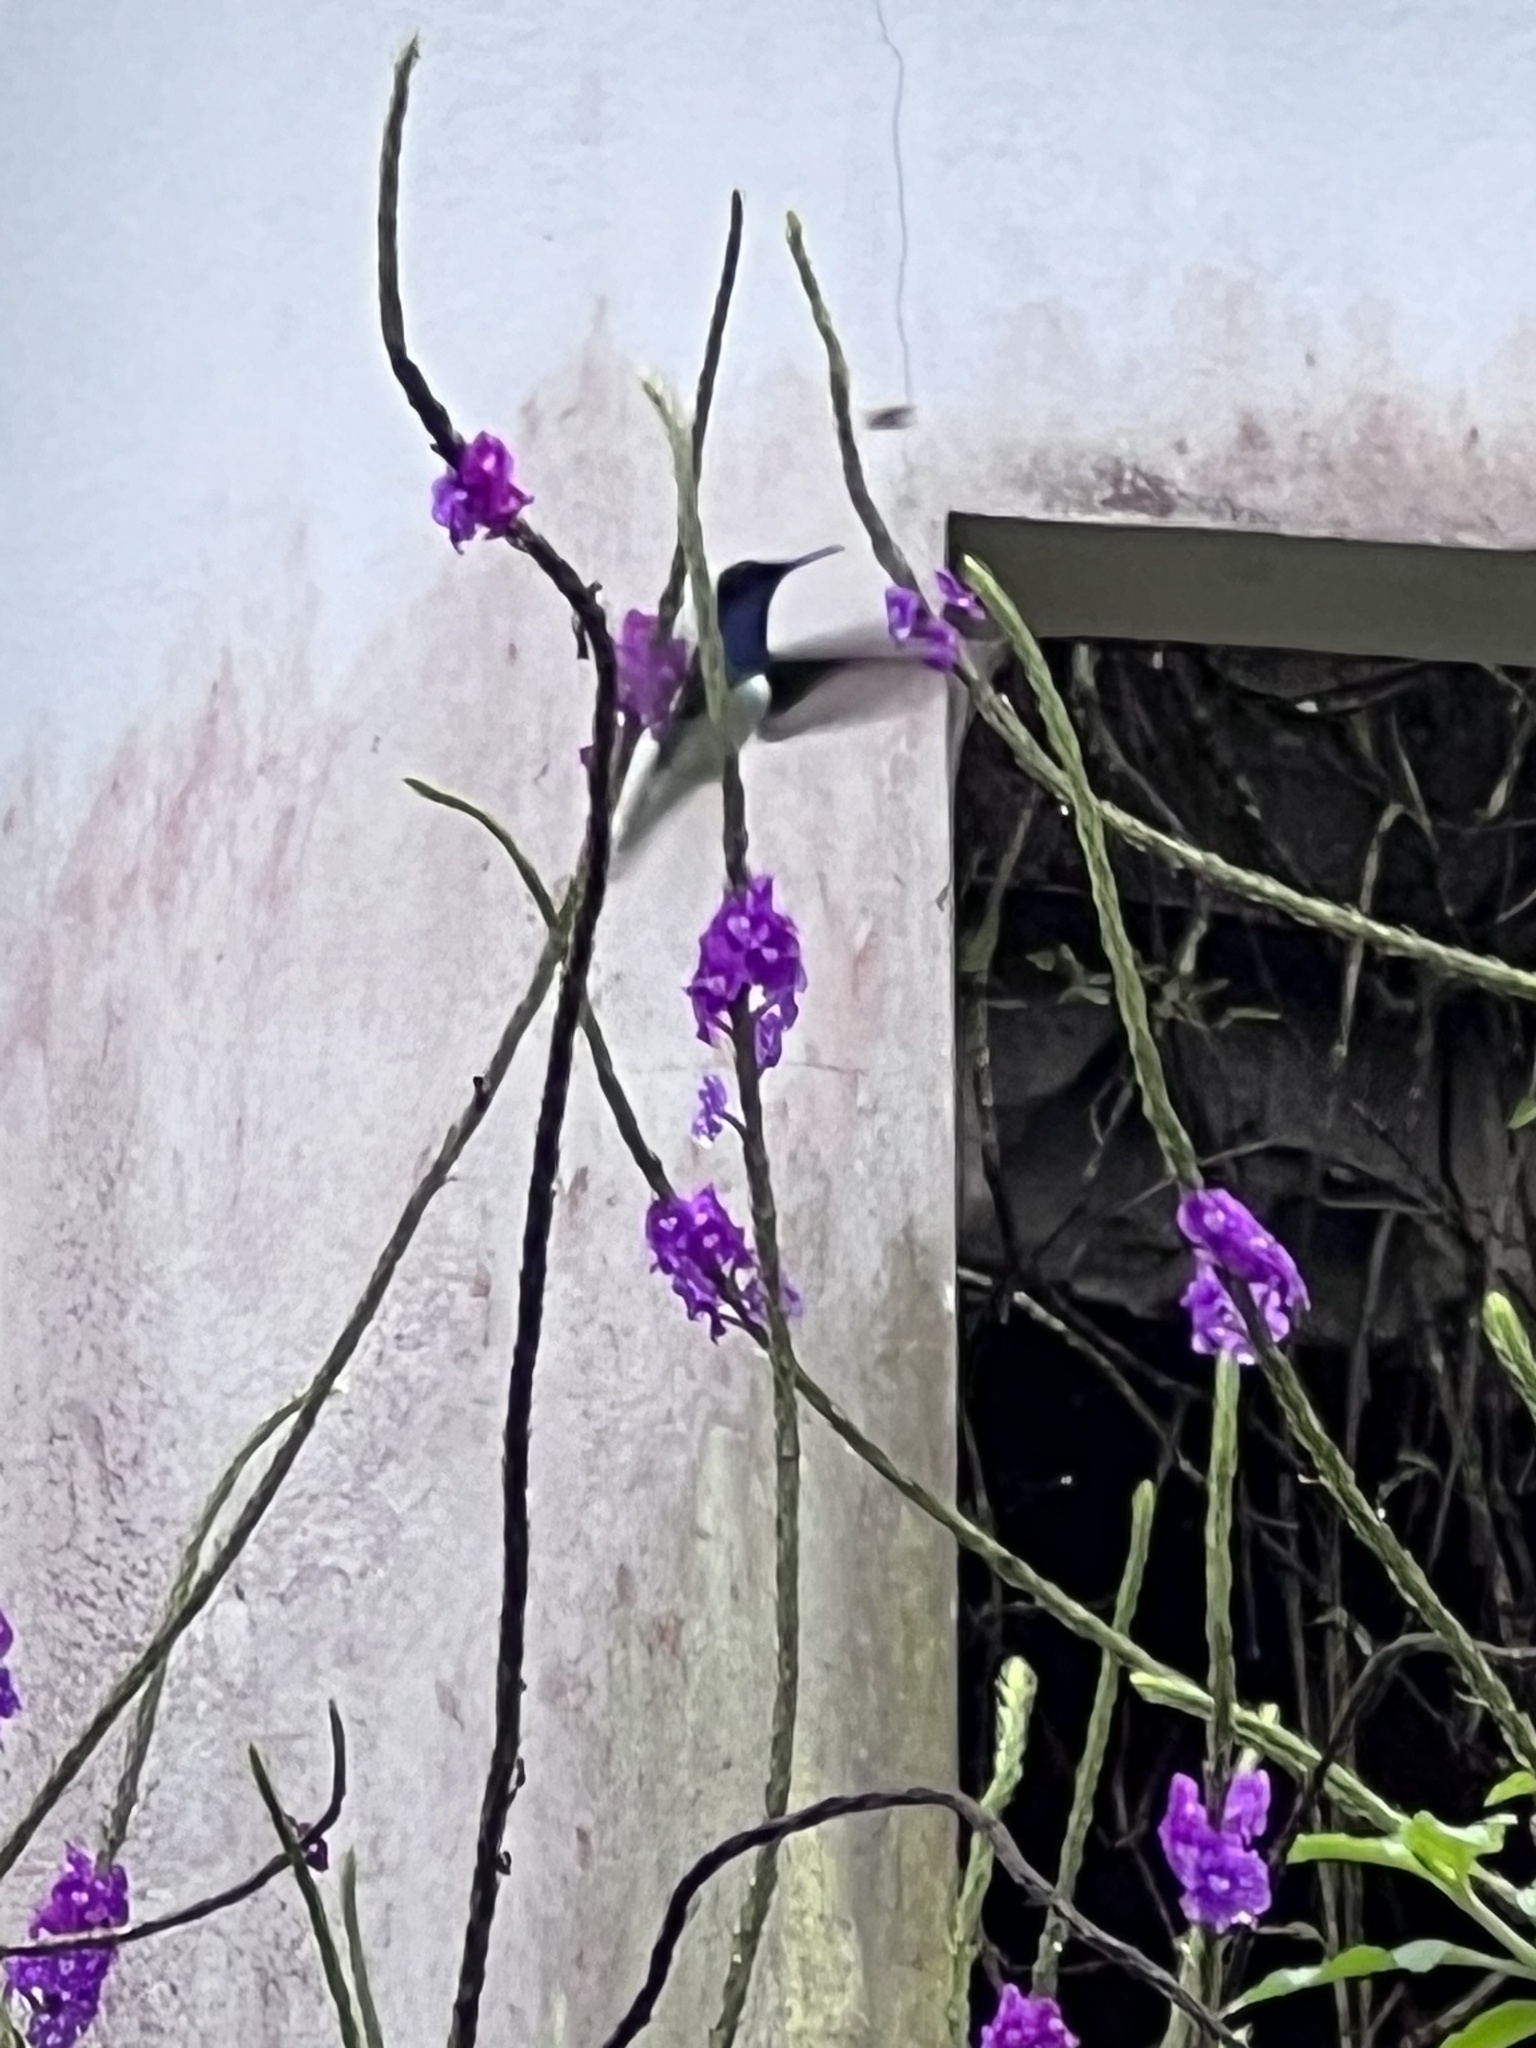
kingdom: Animalia
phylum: Chordata
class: Aves
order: Apodiformes
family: Trochilidae
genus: Florisuga
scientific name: Florisuga mellivora
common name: White-necked jacobin
